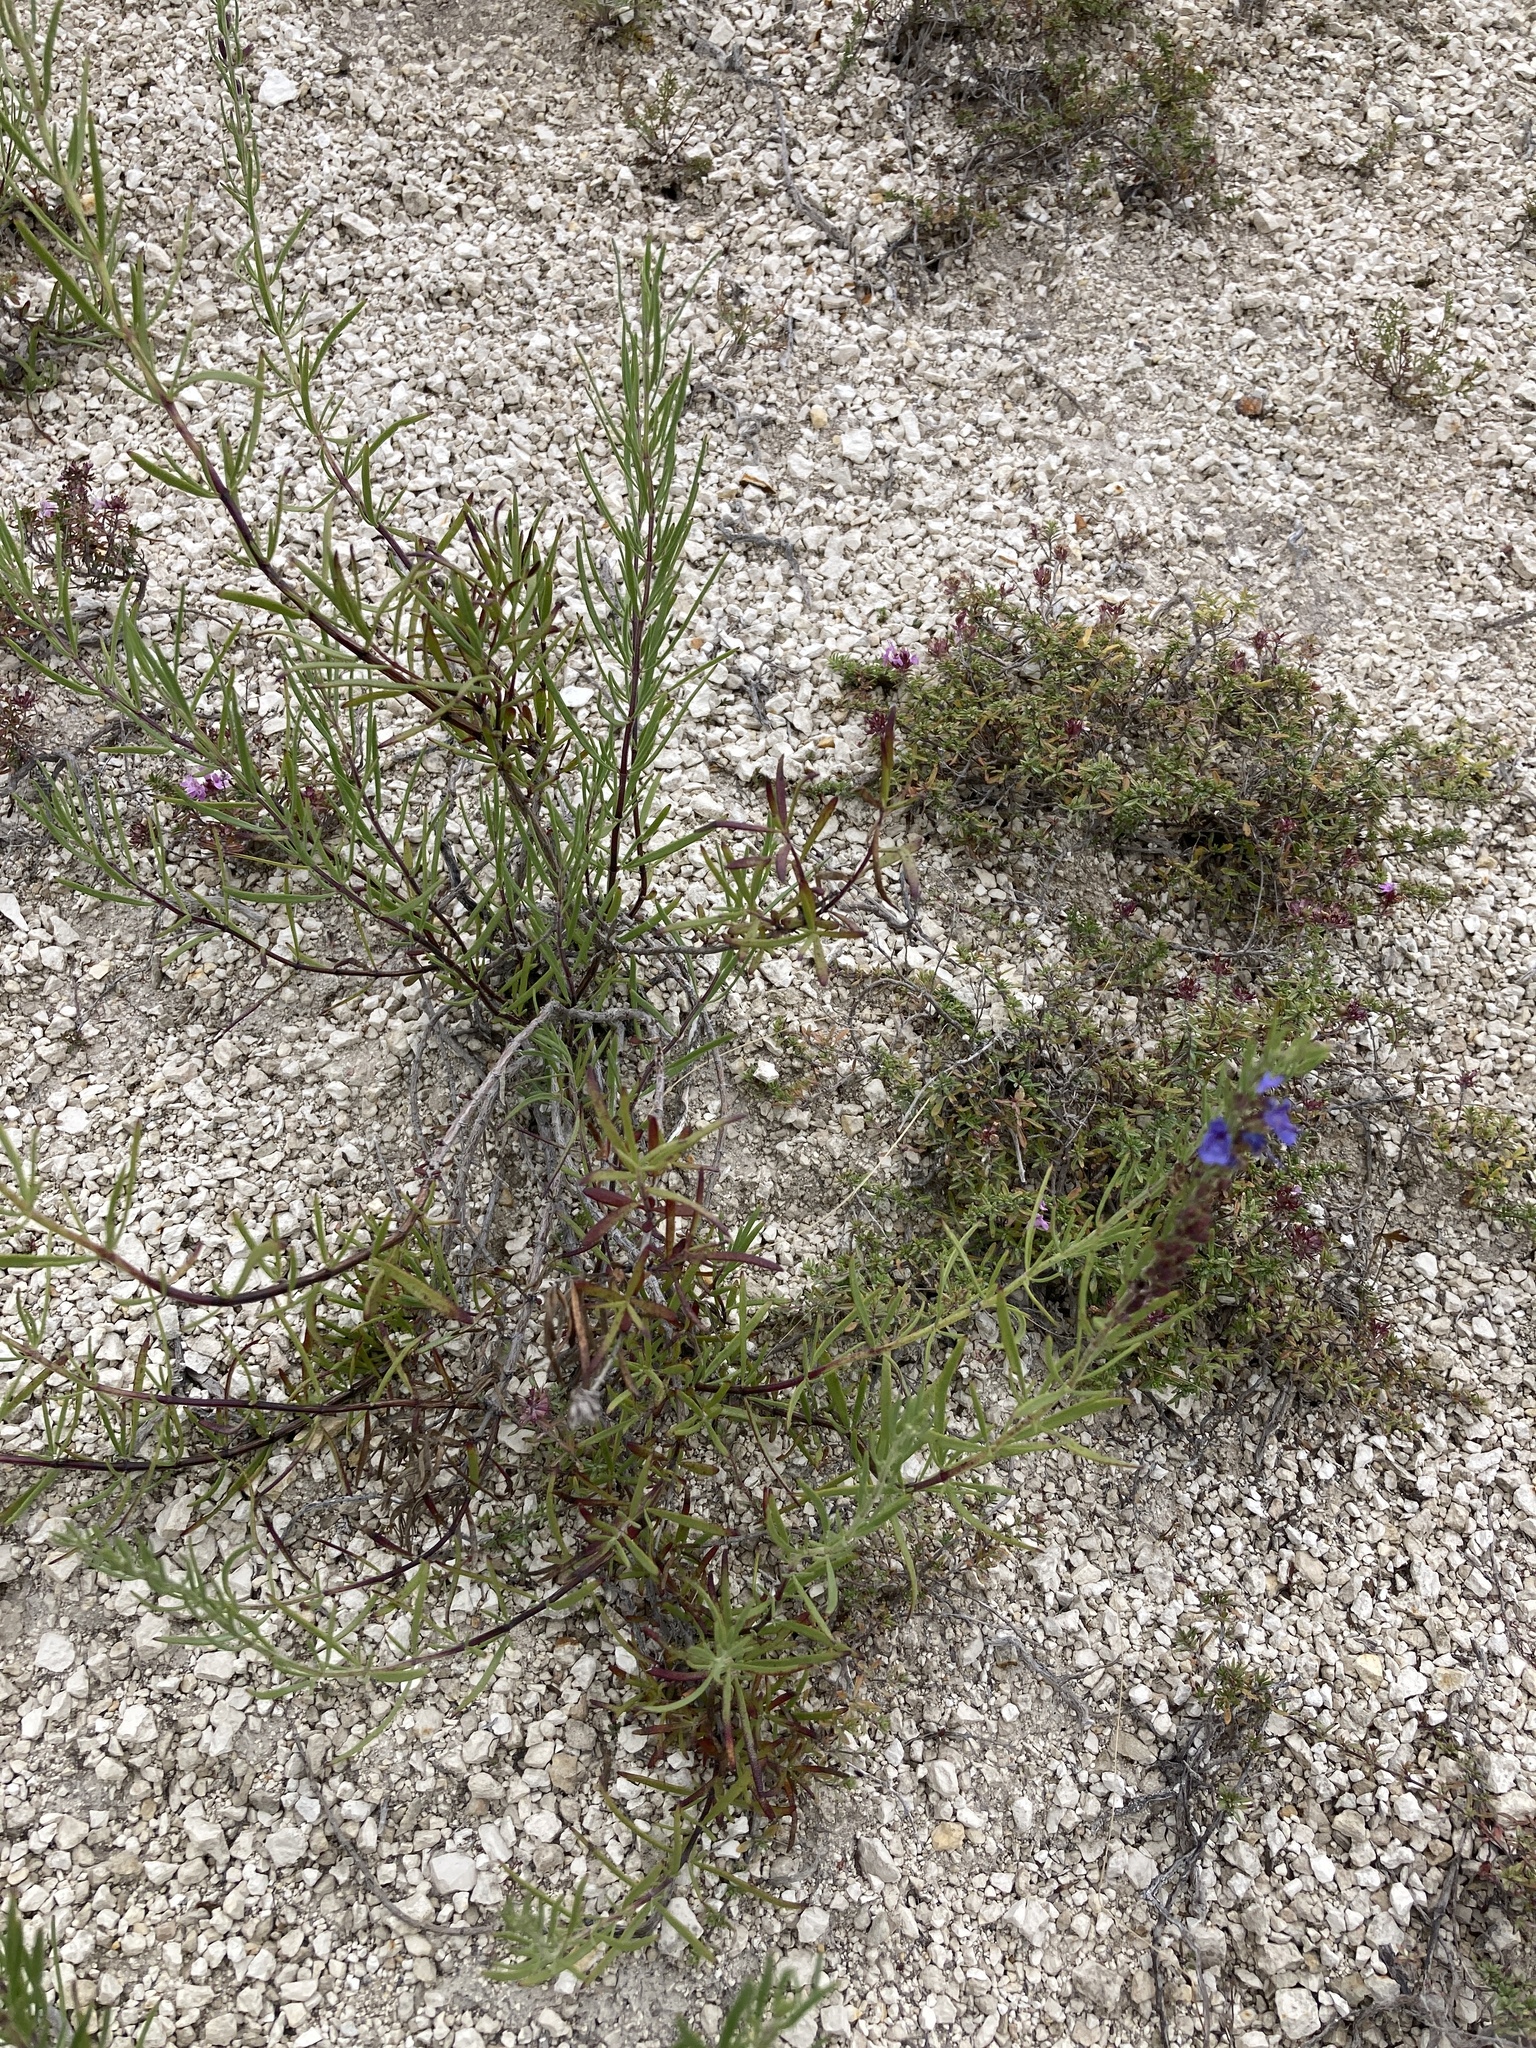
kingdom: Plantae
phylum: Tracheophyta
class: Magnoliopsida
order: Lamiales
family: Lamiaceae
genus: Hyssopus
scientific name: Hyssopus officinalis
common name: Hyssop
